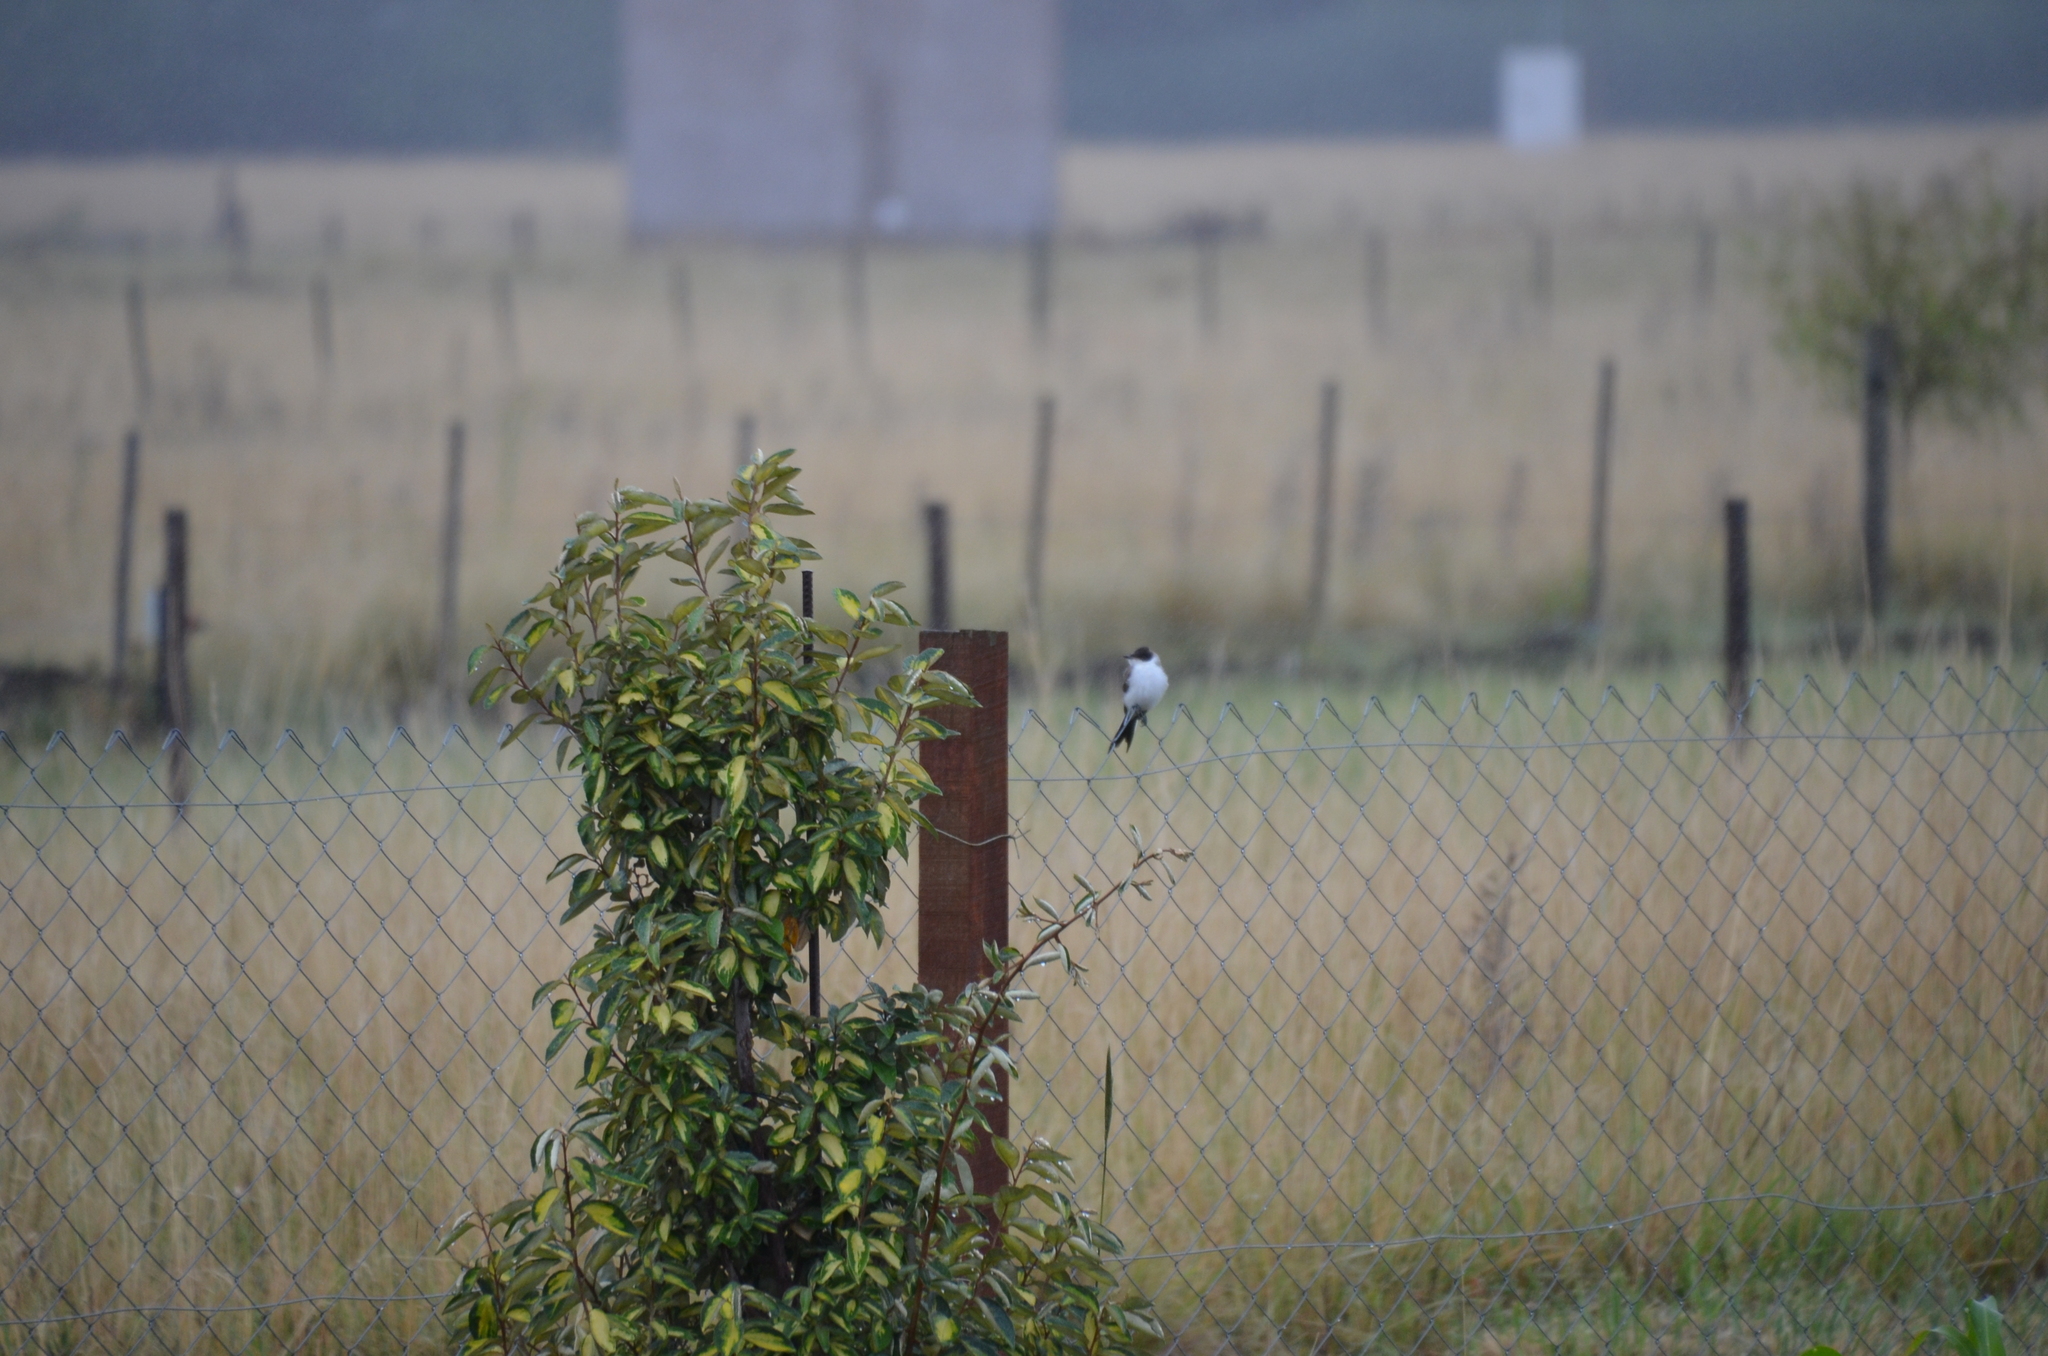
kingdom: Animalia
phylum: Chordata
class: Aves
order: Passeriformes
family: Tyrannidae
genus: Tyrannus
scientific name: Tyrannus savana
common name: Fork-tailed flycatcher
